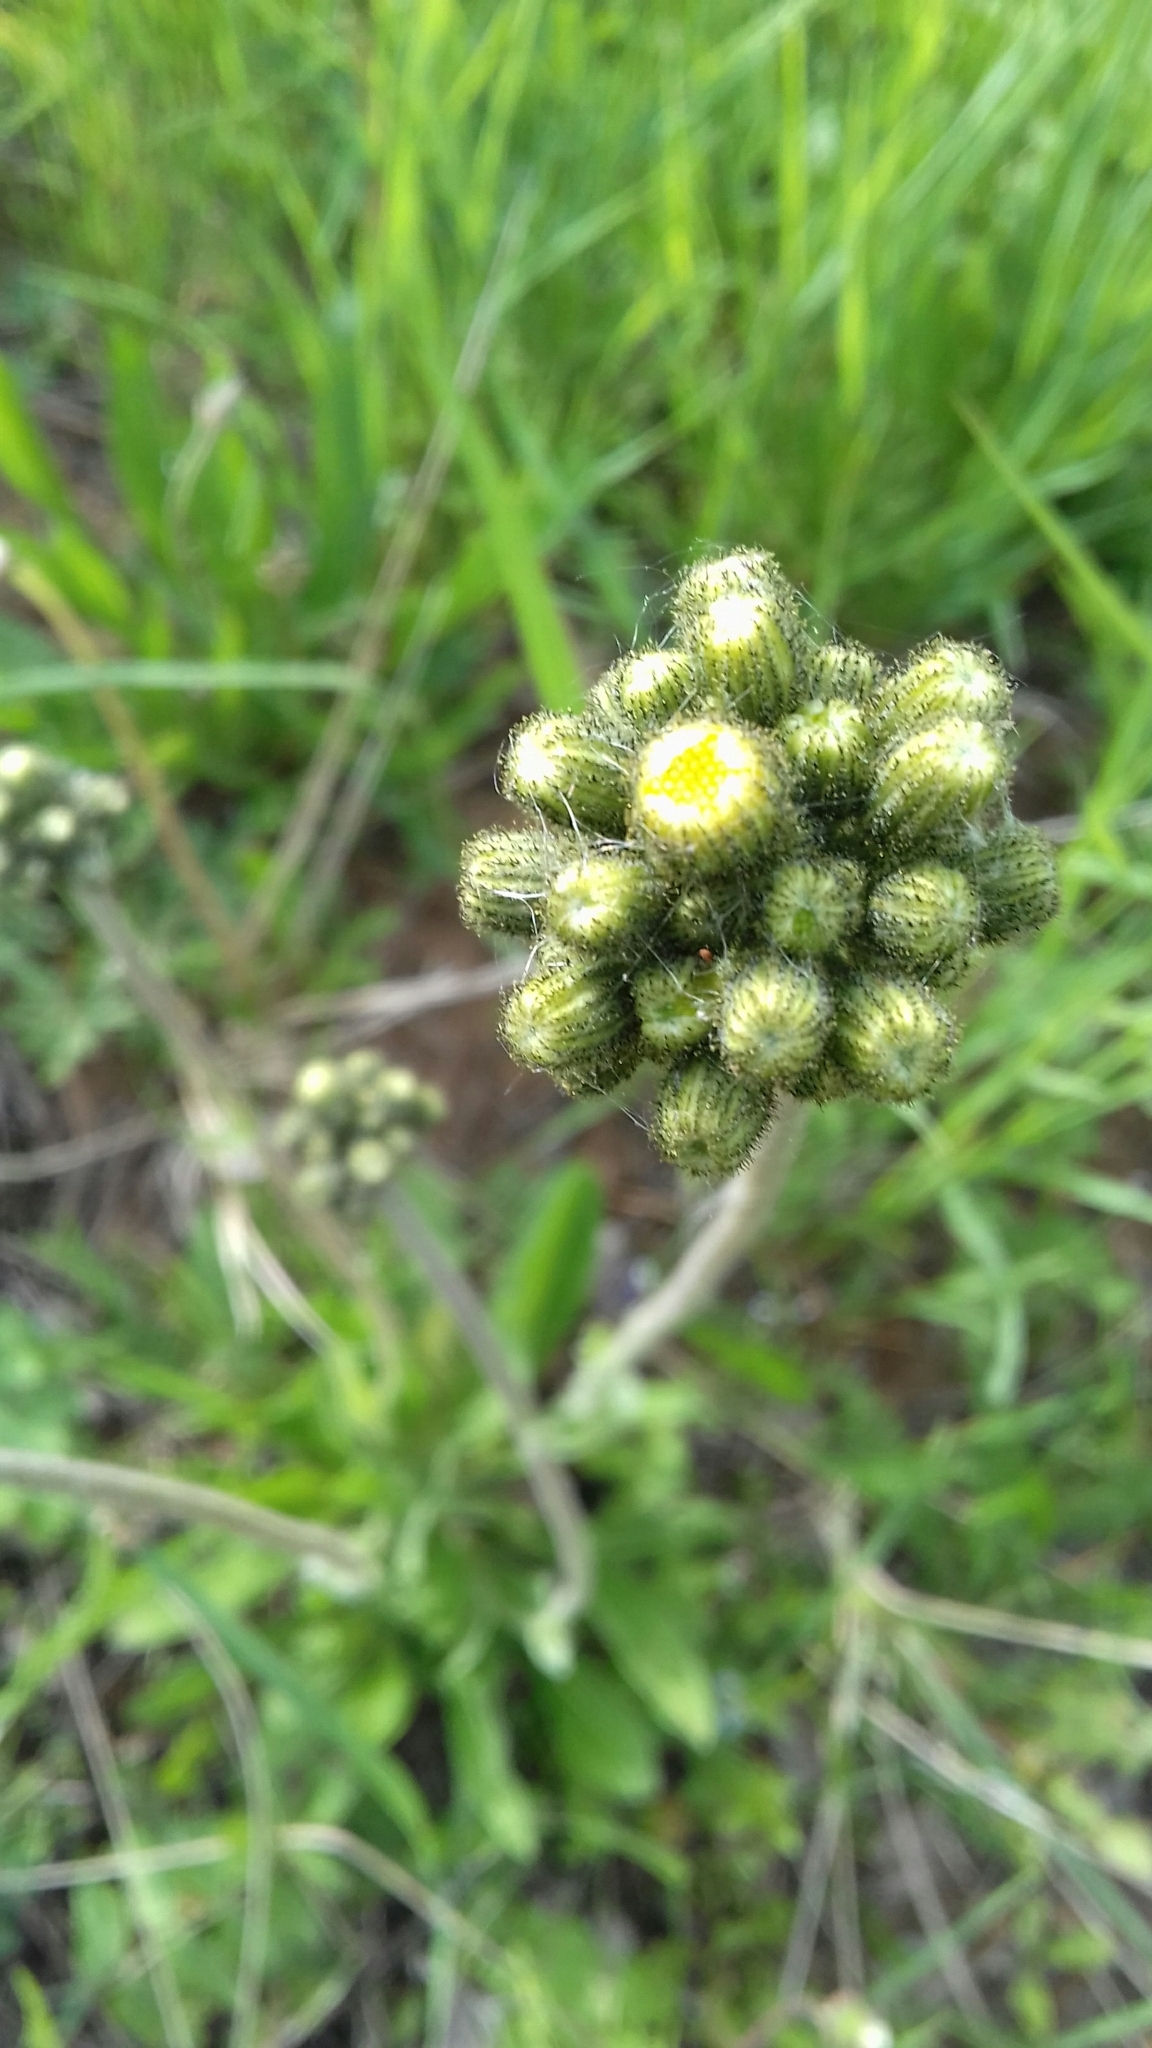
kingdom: Plantae
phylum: Tracheophyta
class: Magnoliopsida
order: Asterales
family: Asteraceae
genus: Pilosella
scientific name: Pilosella
